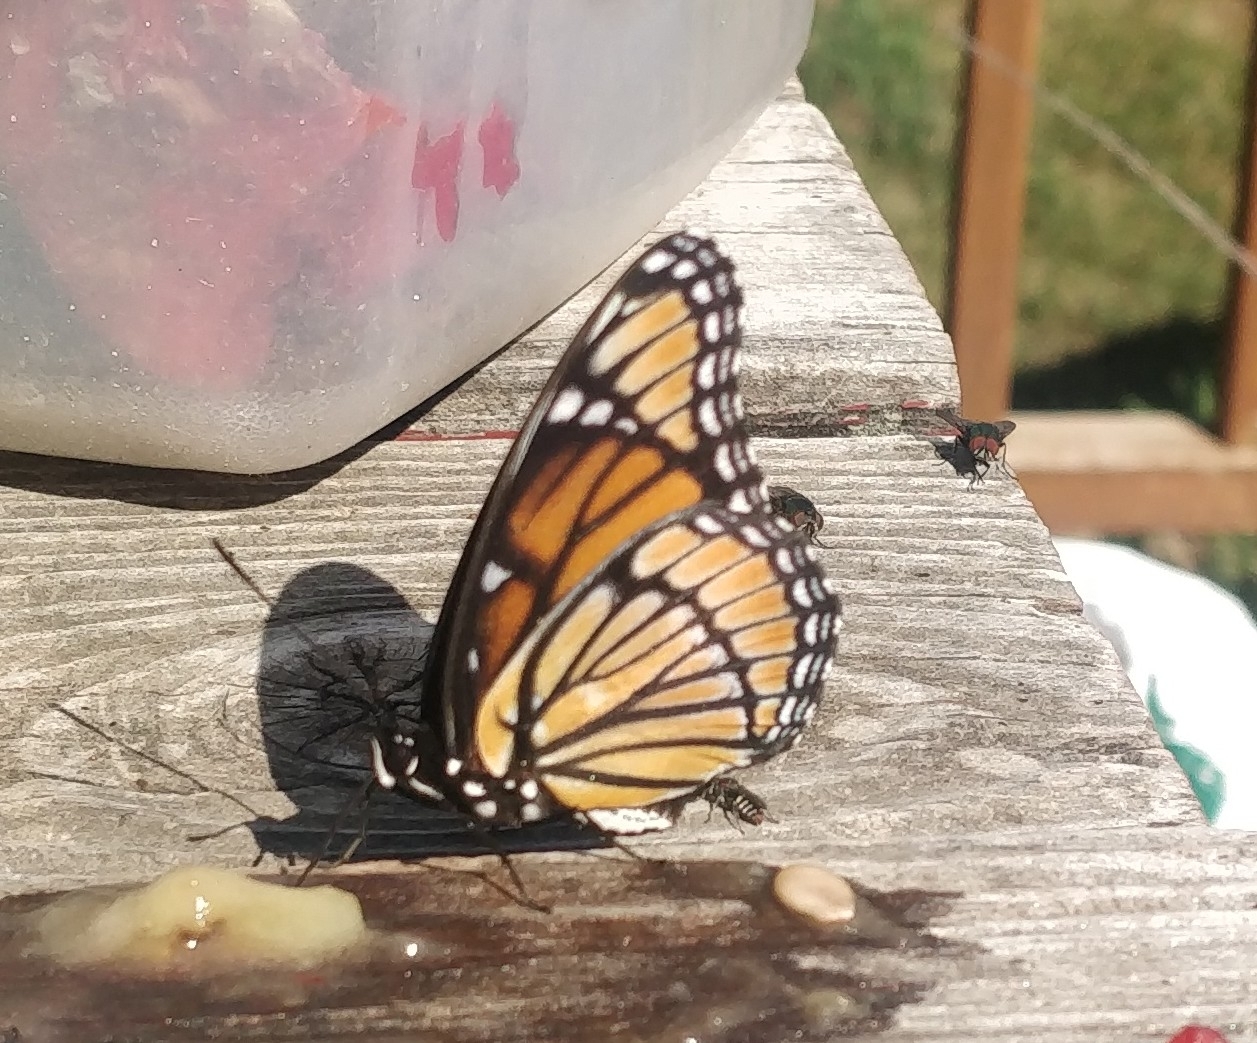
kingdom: Animalia
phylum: Arthropoda
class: Insecta
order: Lepidoptera
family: Nymphalidae
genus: Limenitis
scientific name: Limenitis archippus
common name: Viceroy
